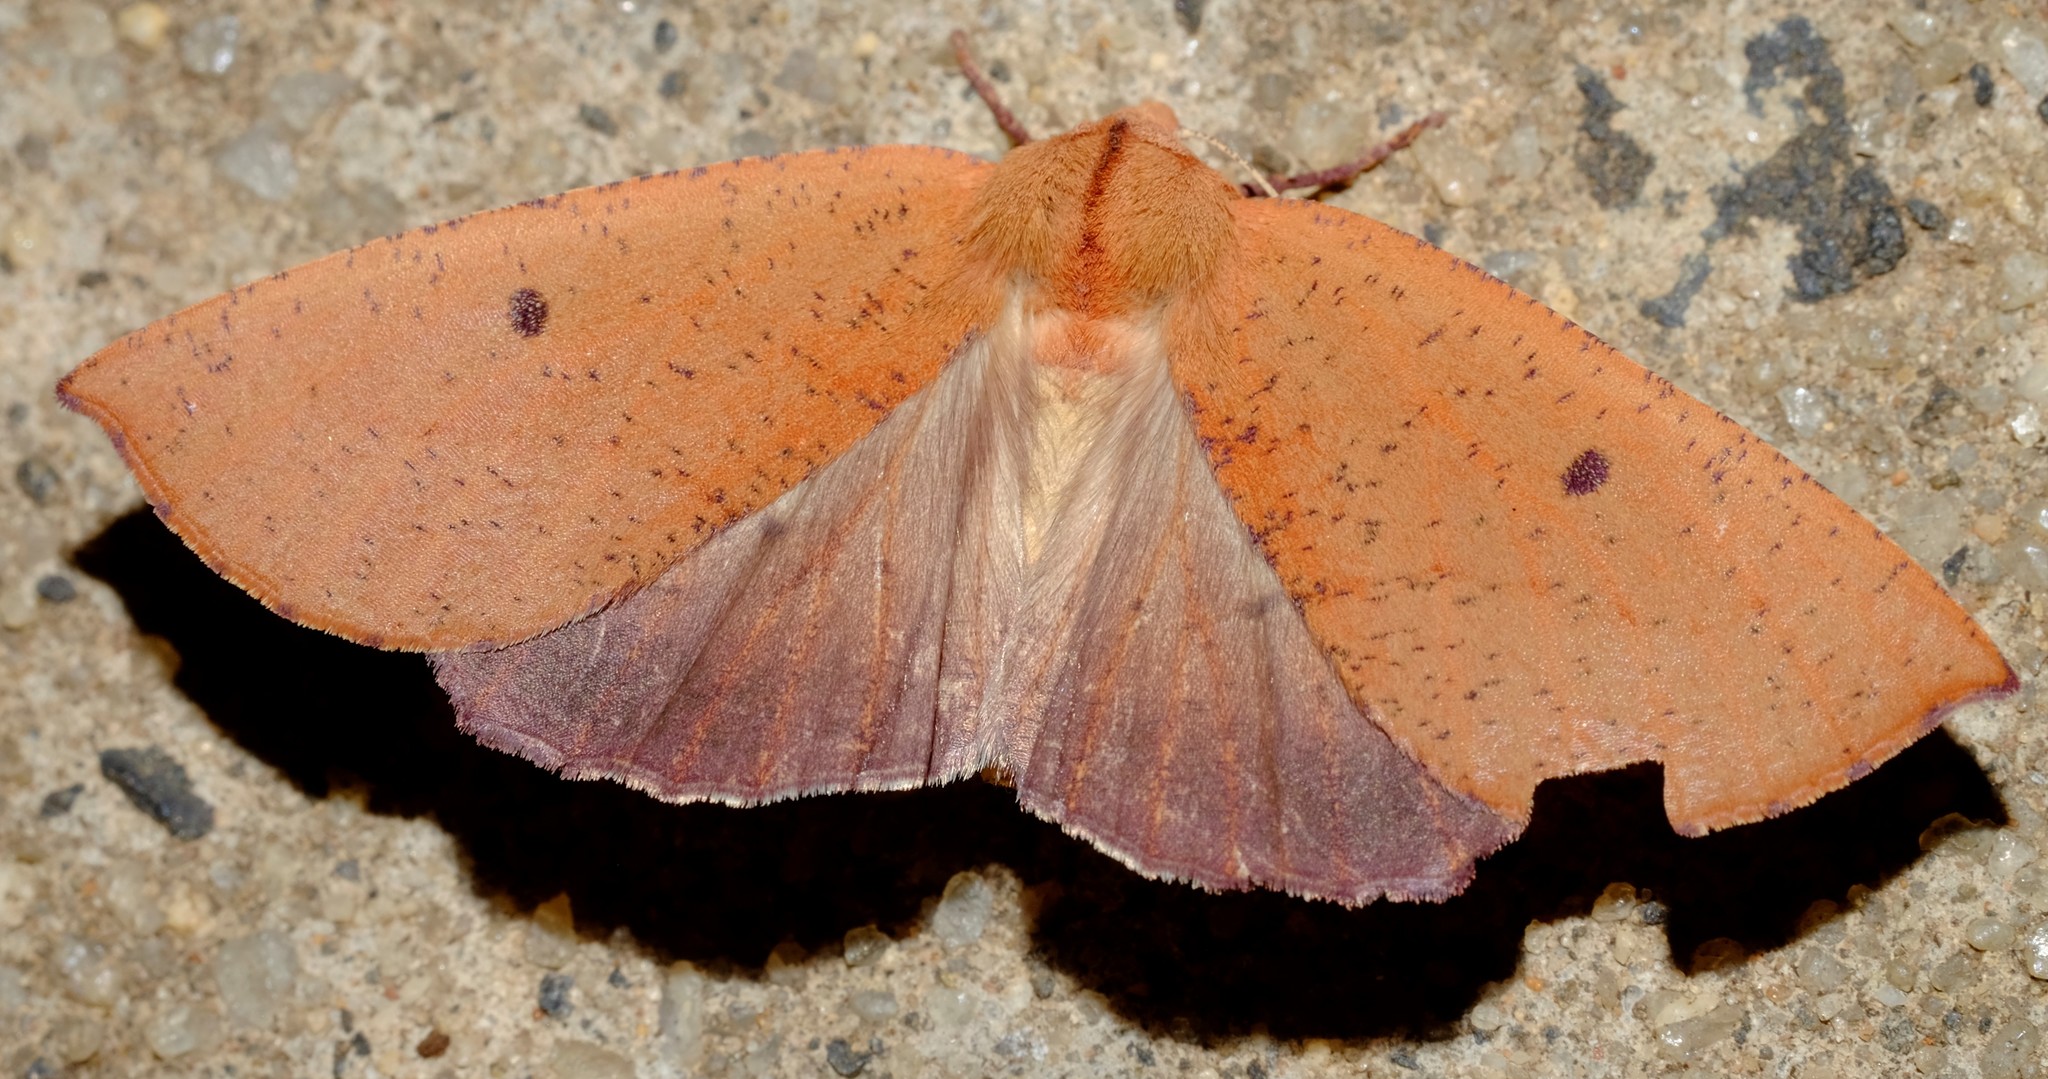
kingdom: Animalia
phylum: Arthropoda
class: Insecta
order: Lepidoptera
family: Geometridae
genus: Fisera
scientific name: Fisera hypoleuca
